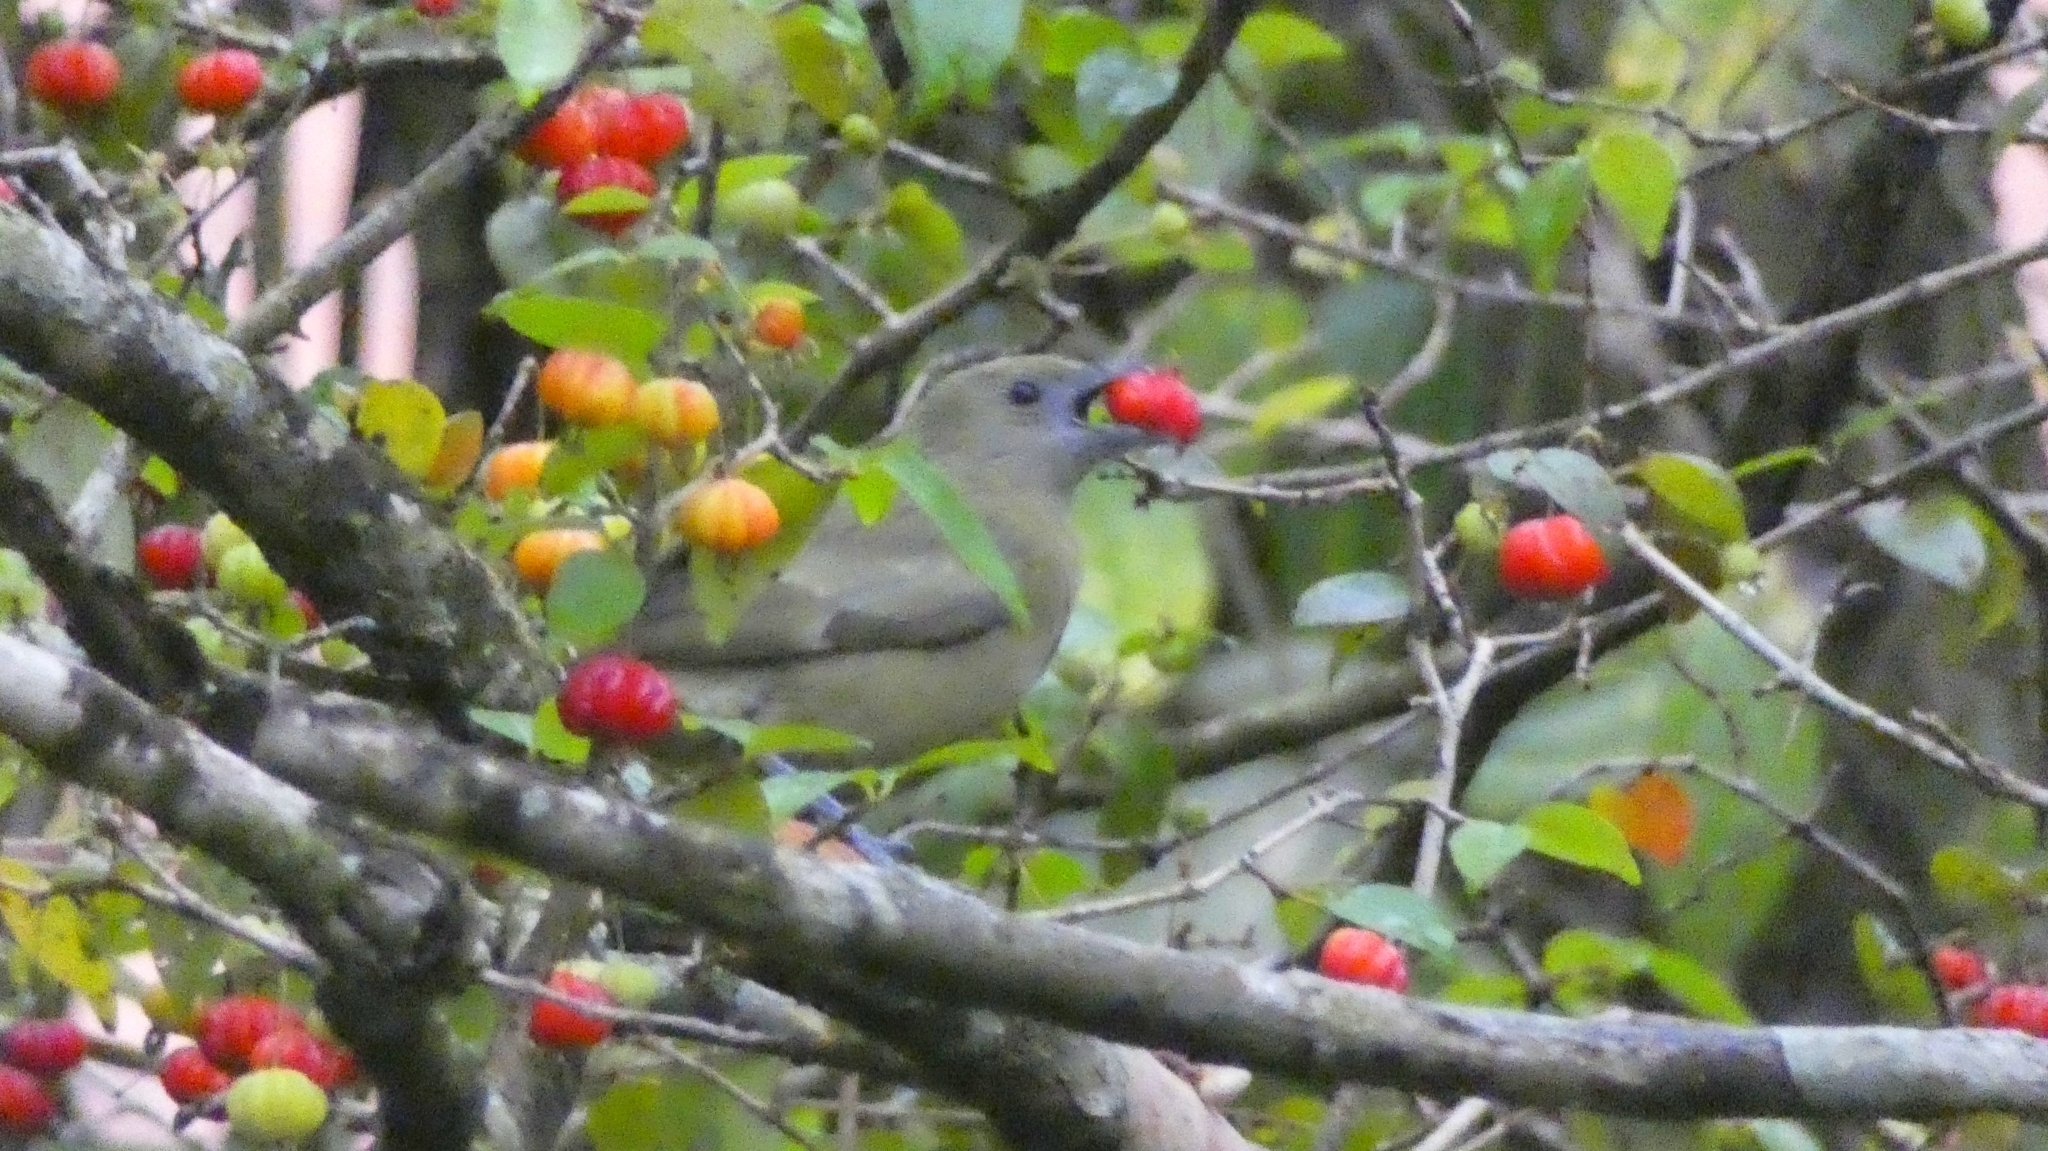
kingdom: Animalia
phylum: Chordata
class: Aves
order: Passeriformes
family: Thraupidae
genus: Thraupis
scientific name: Thraupis palmarum
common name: Palm tanager
